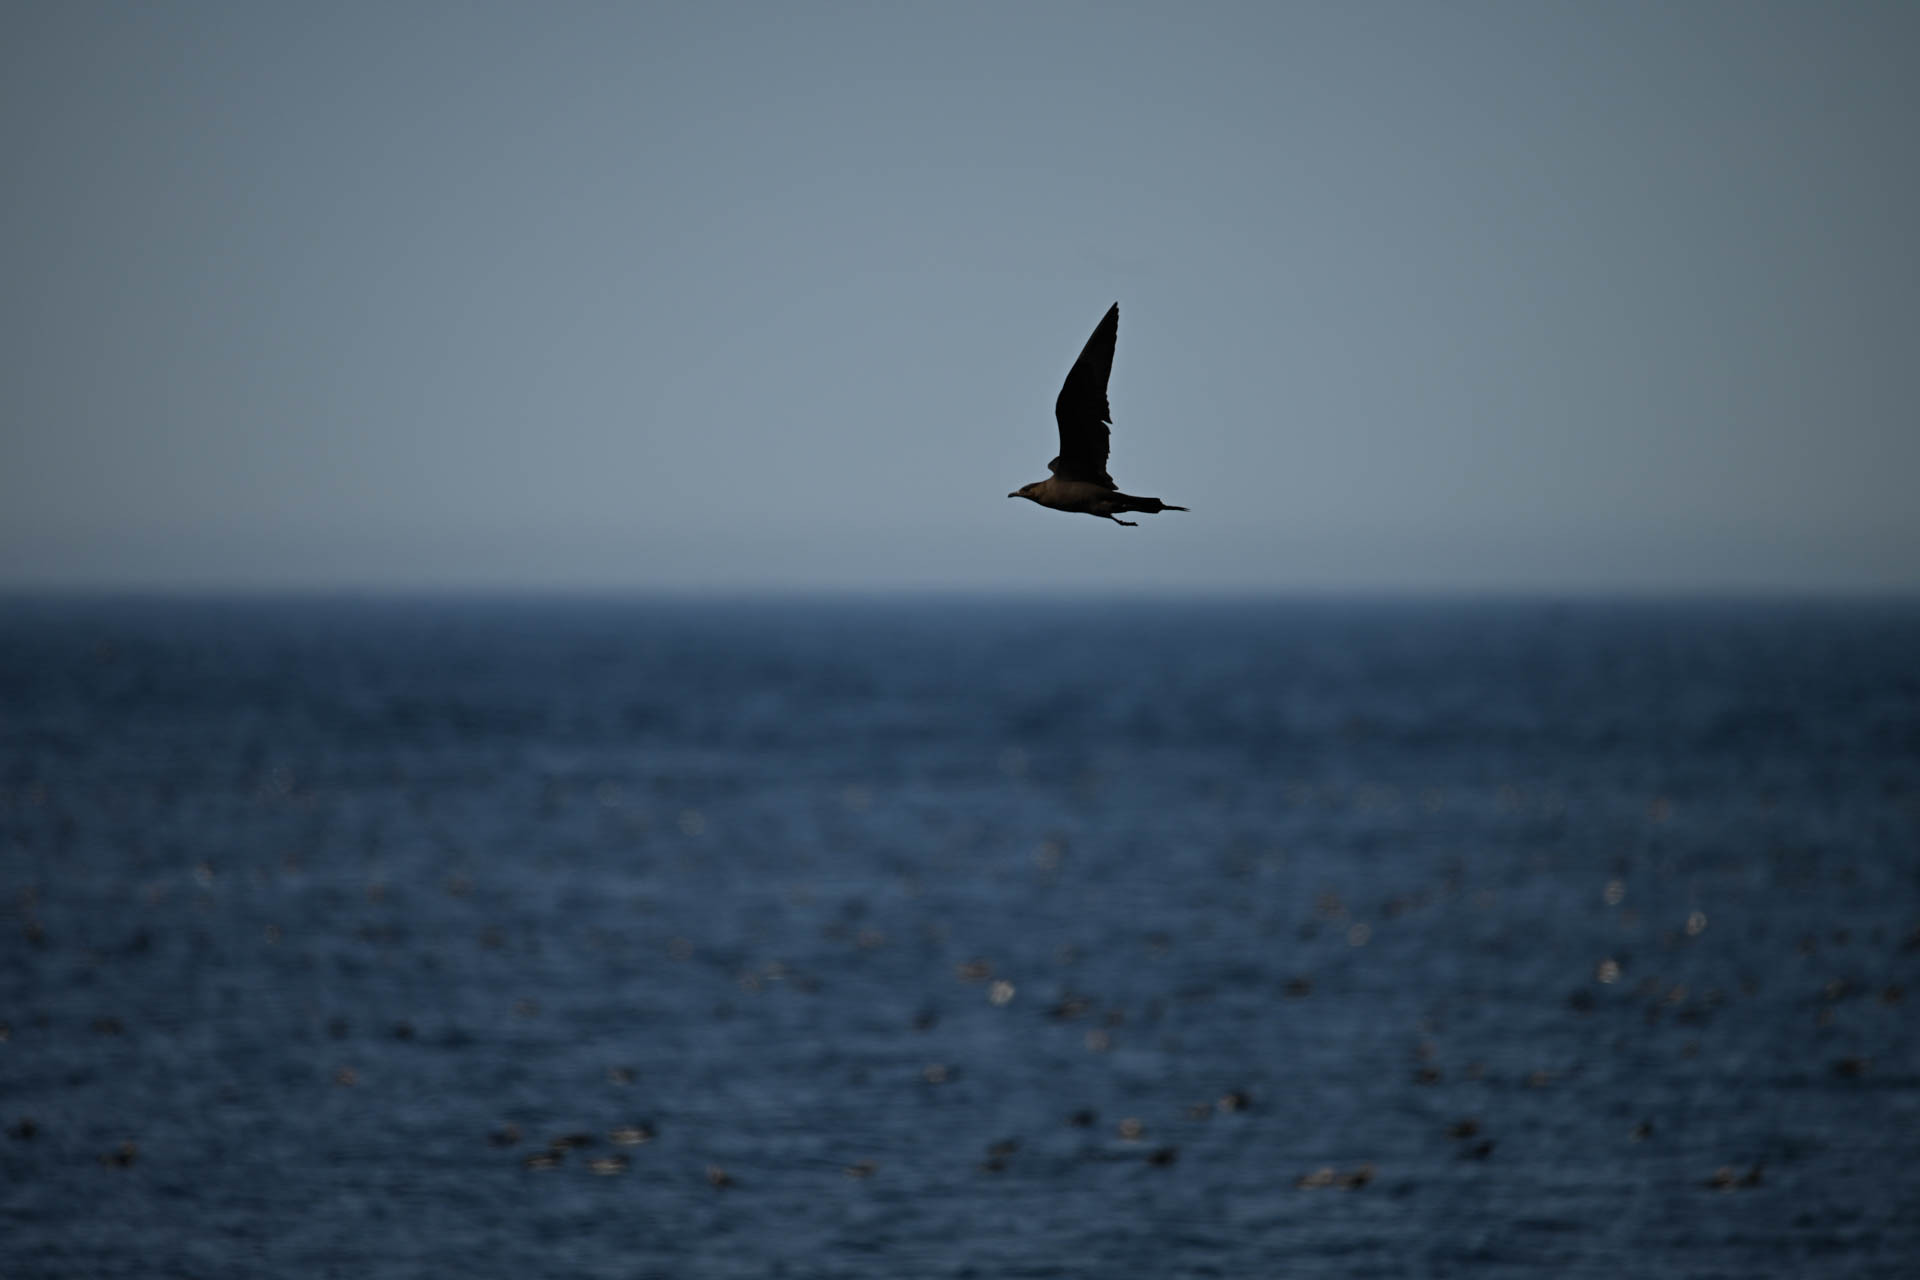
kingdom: Animalia
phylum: Chordata
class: Aves
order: Charadriiformes
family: Stercorariidae
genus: Stercorarius
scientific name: Stercorarius parasiticus
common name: Parasitic jaeger
